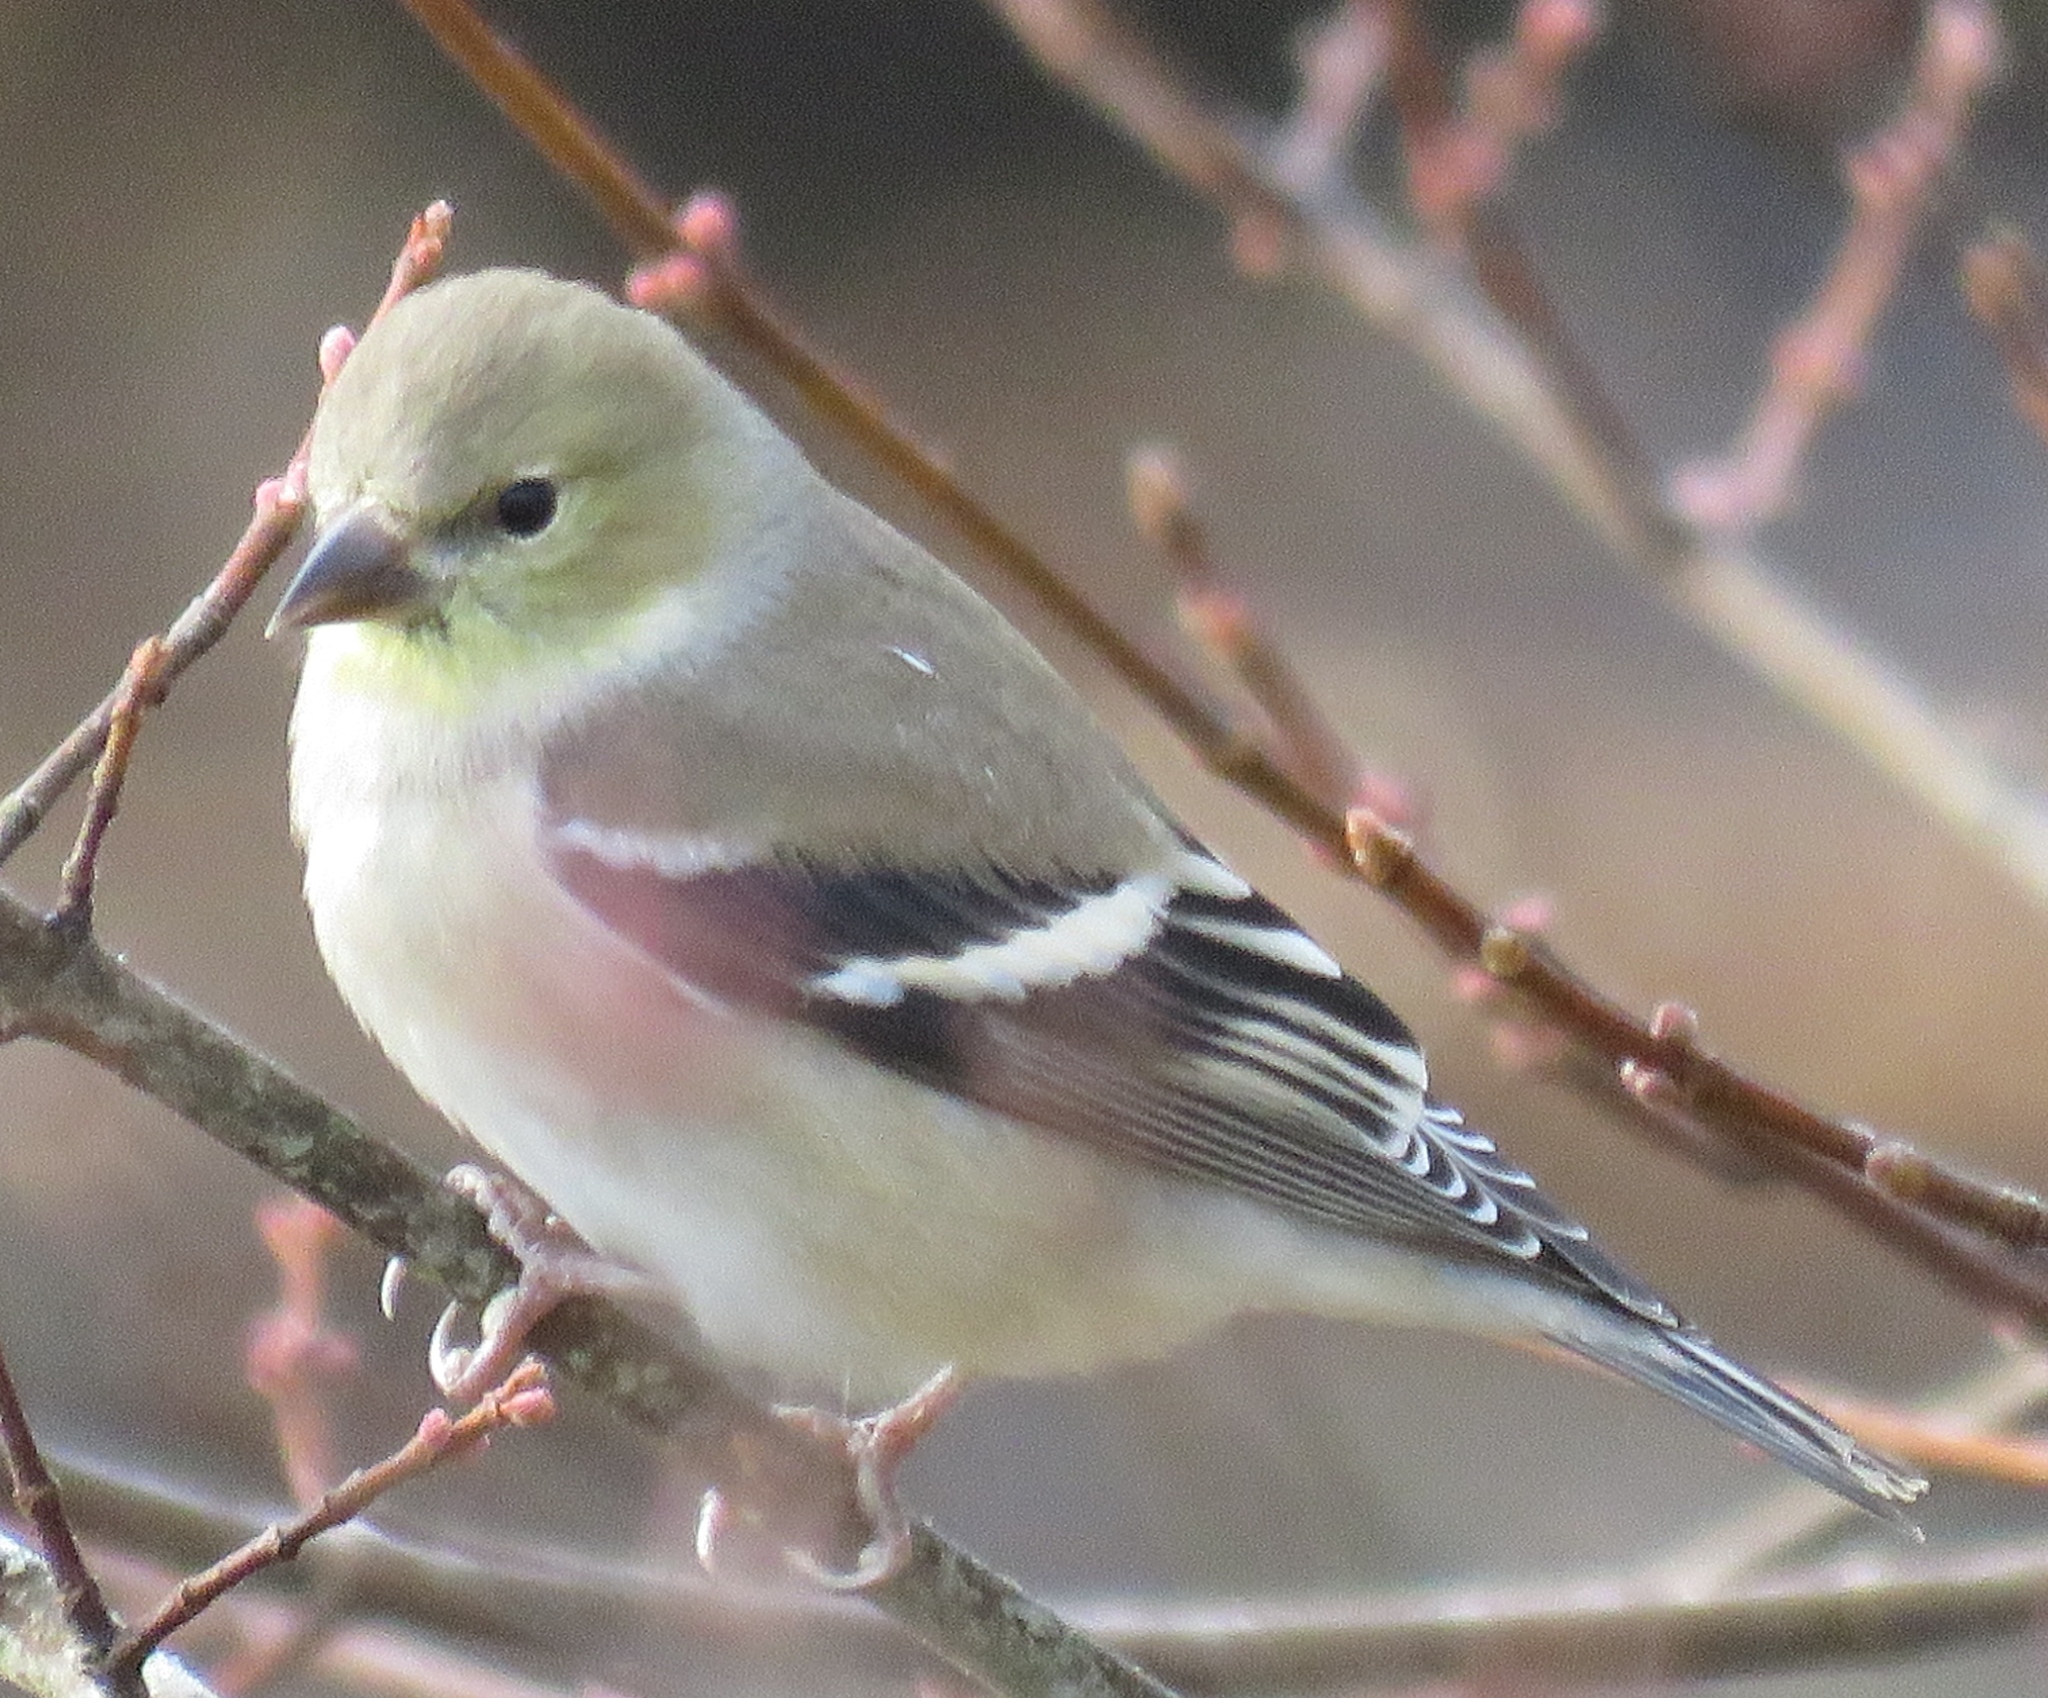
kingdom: Animalia
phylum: Chordata
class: Aves
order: Passeriformes
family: Fringillidae
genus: Spinus
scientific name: Spinus tristis
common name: American goldfinch
